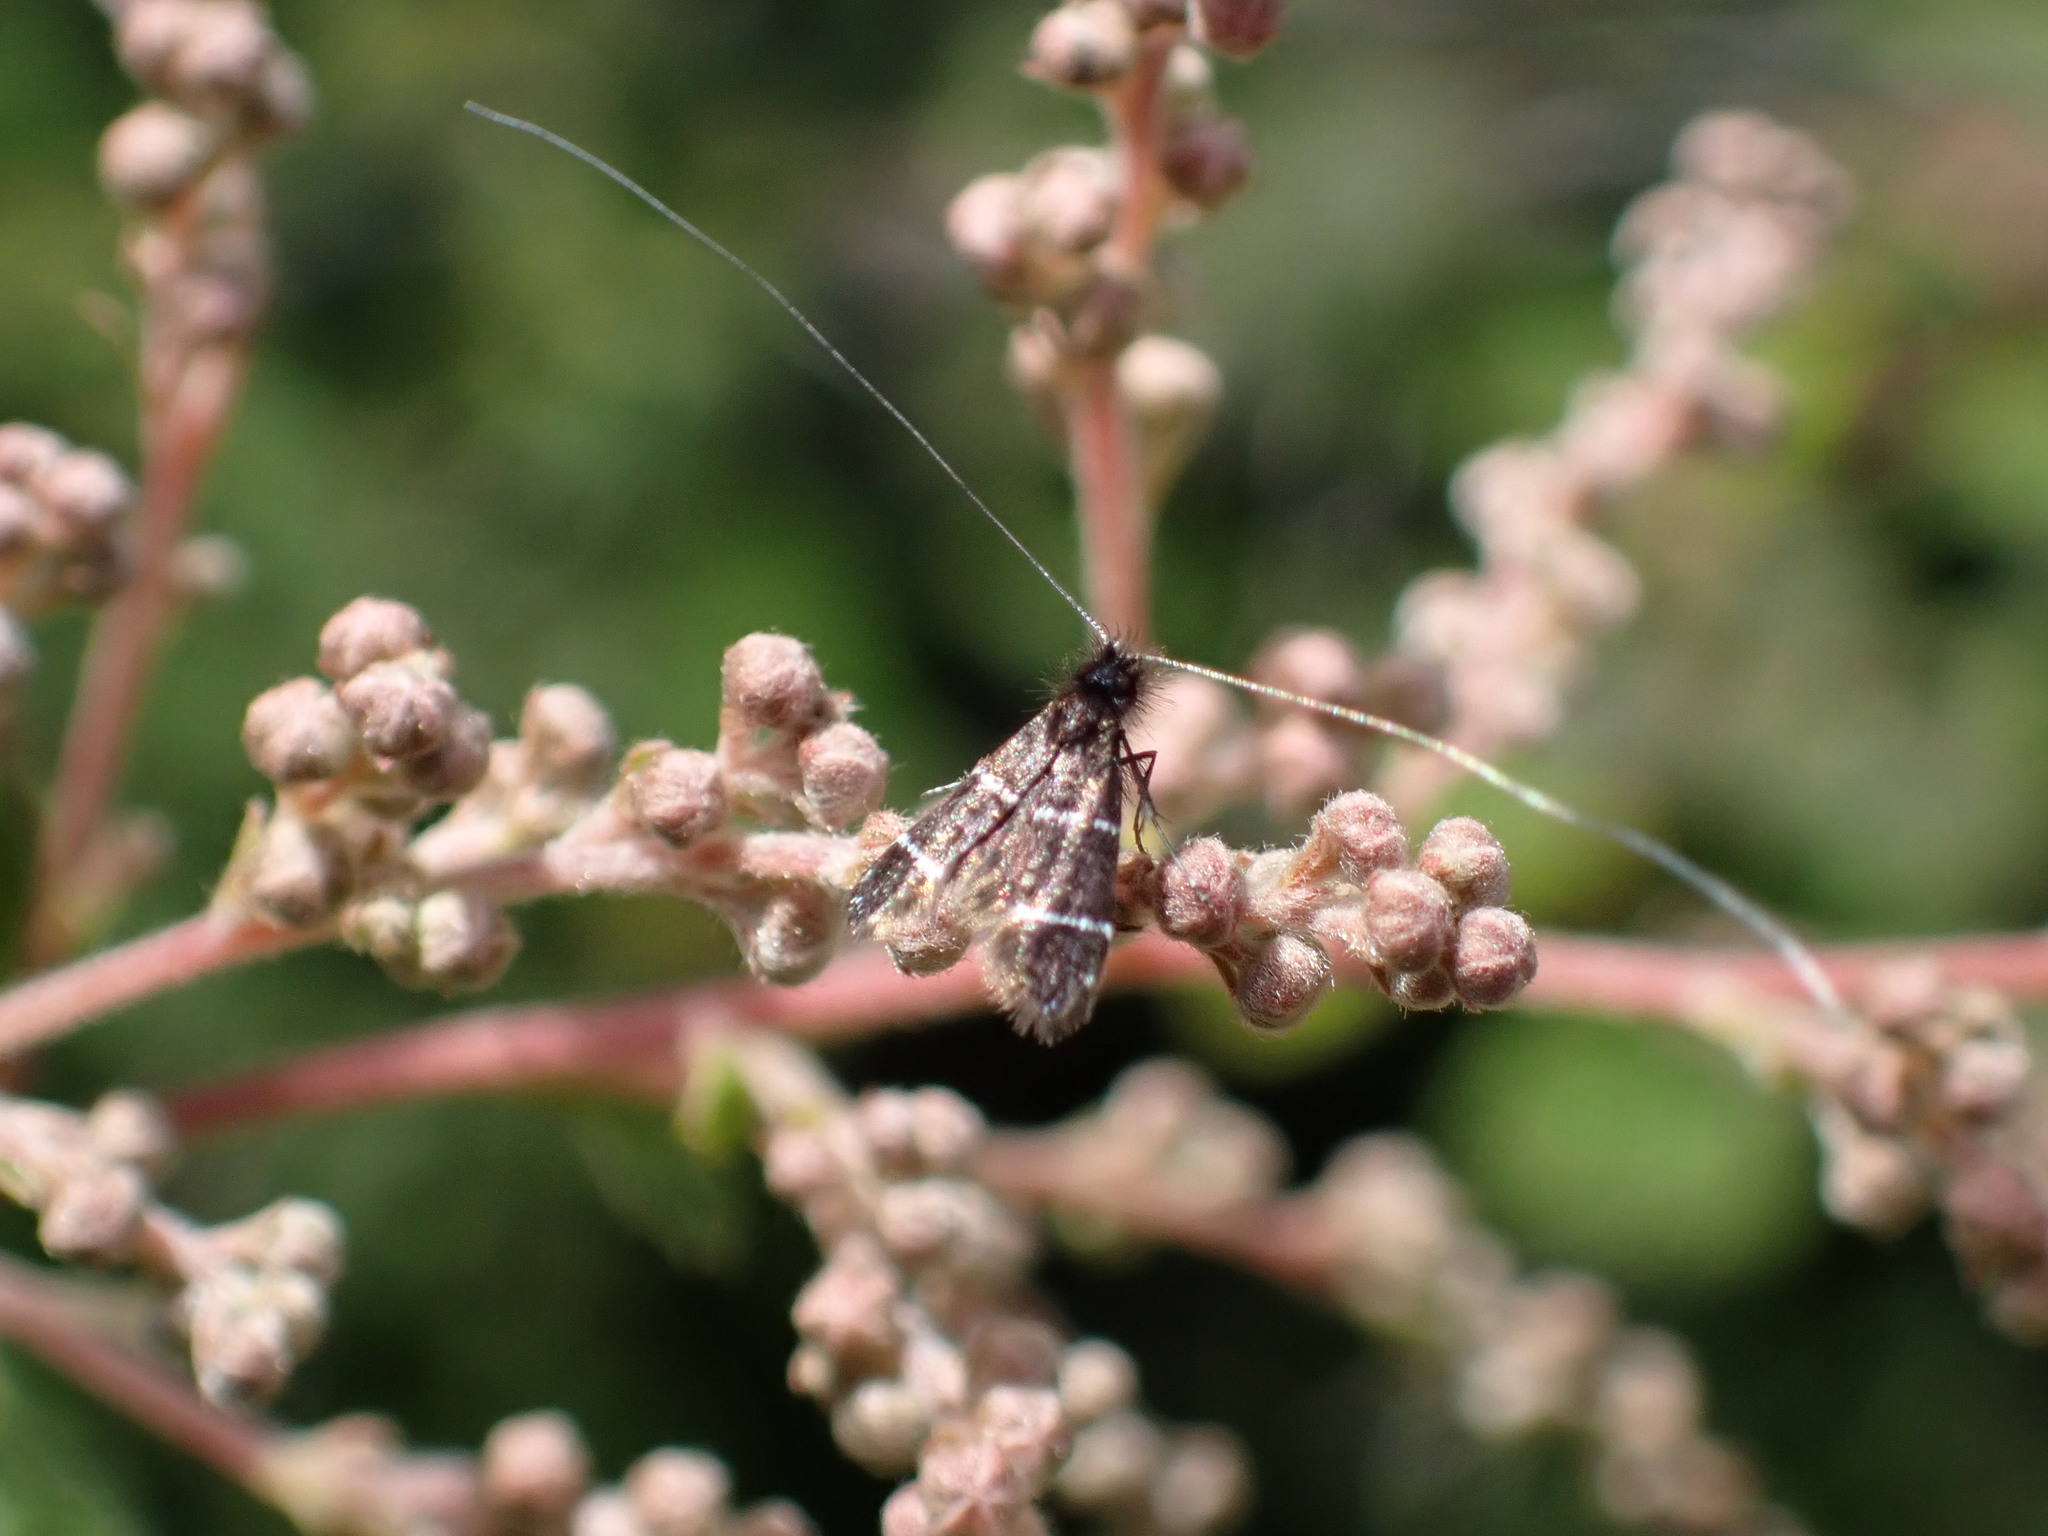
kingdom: Animalia
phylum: Arthropoda
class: Insecta
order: Lepidoptera
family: Adelidae
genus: Adela
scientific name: Adela septentrionella
